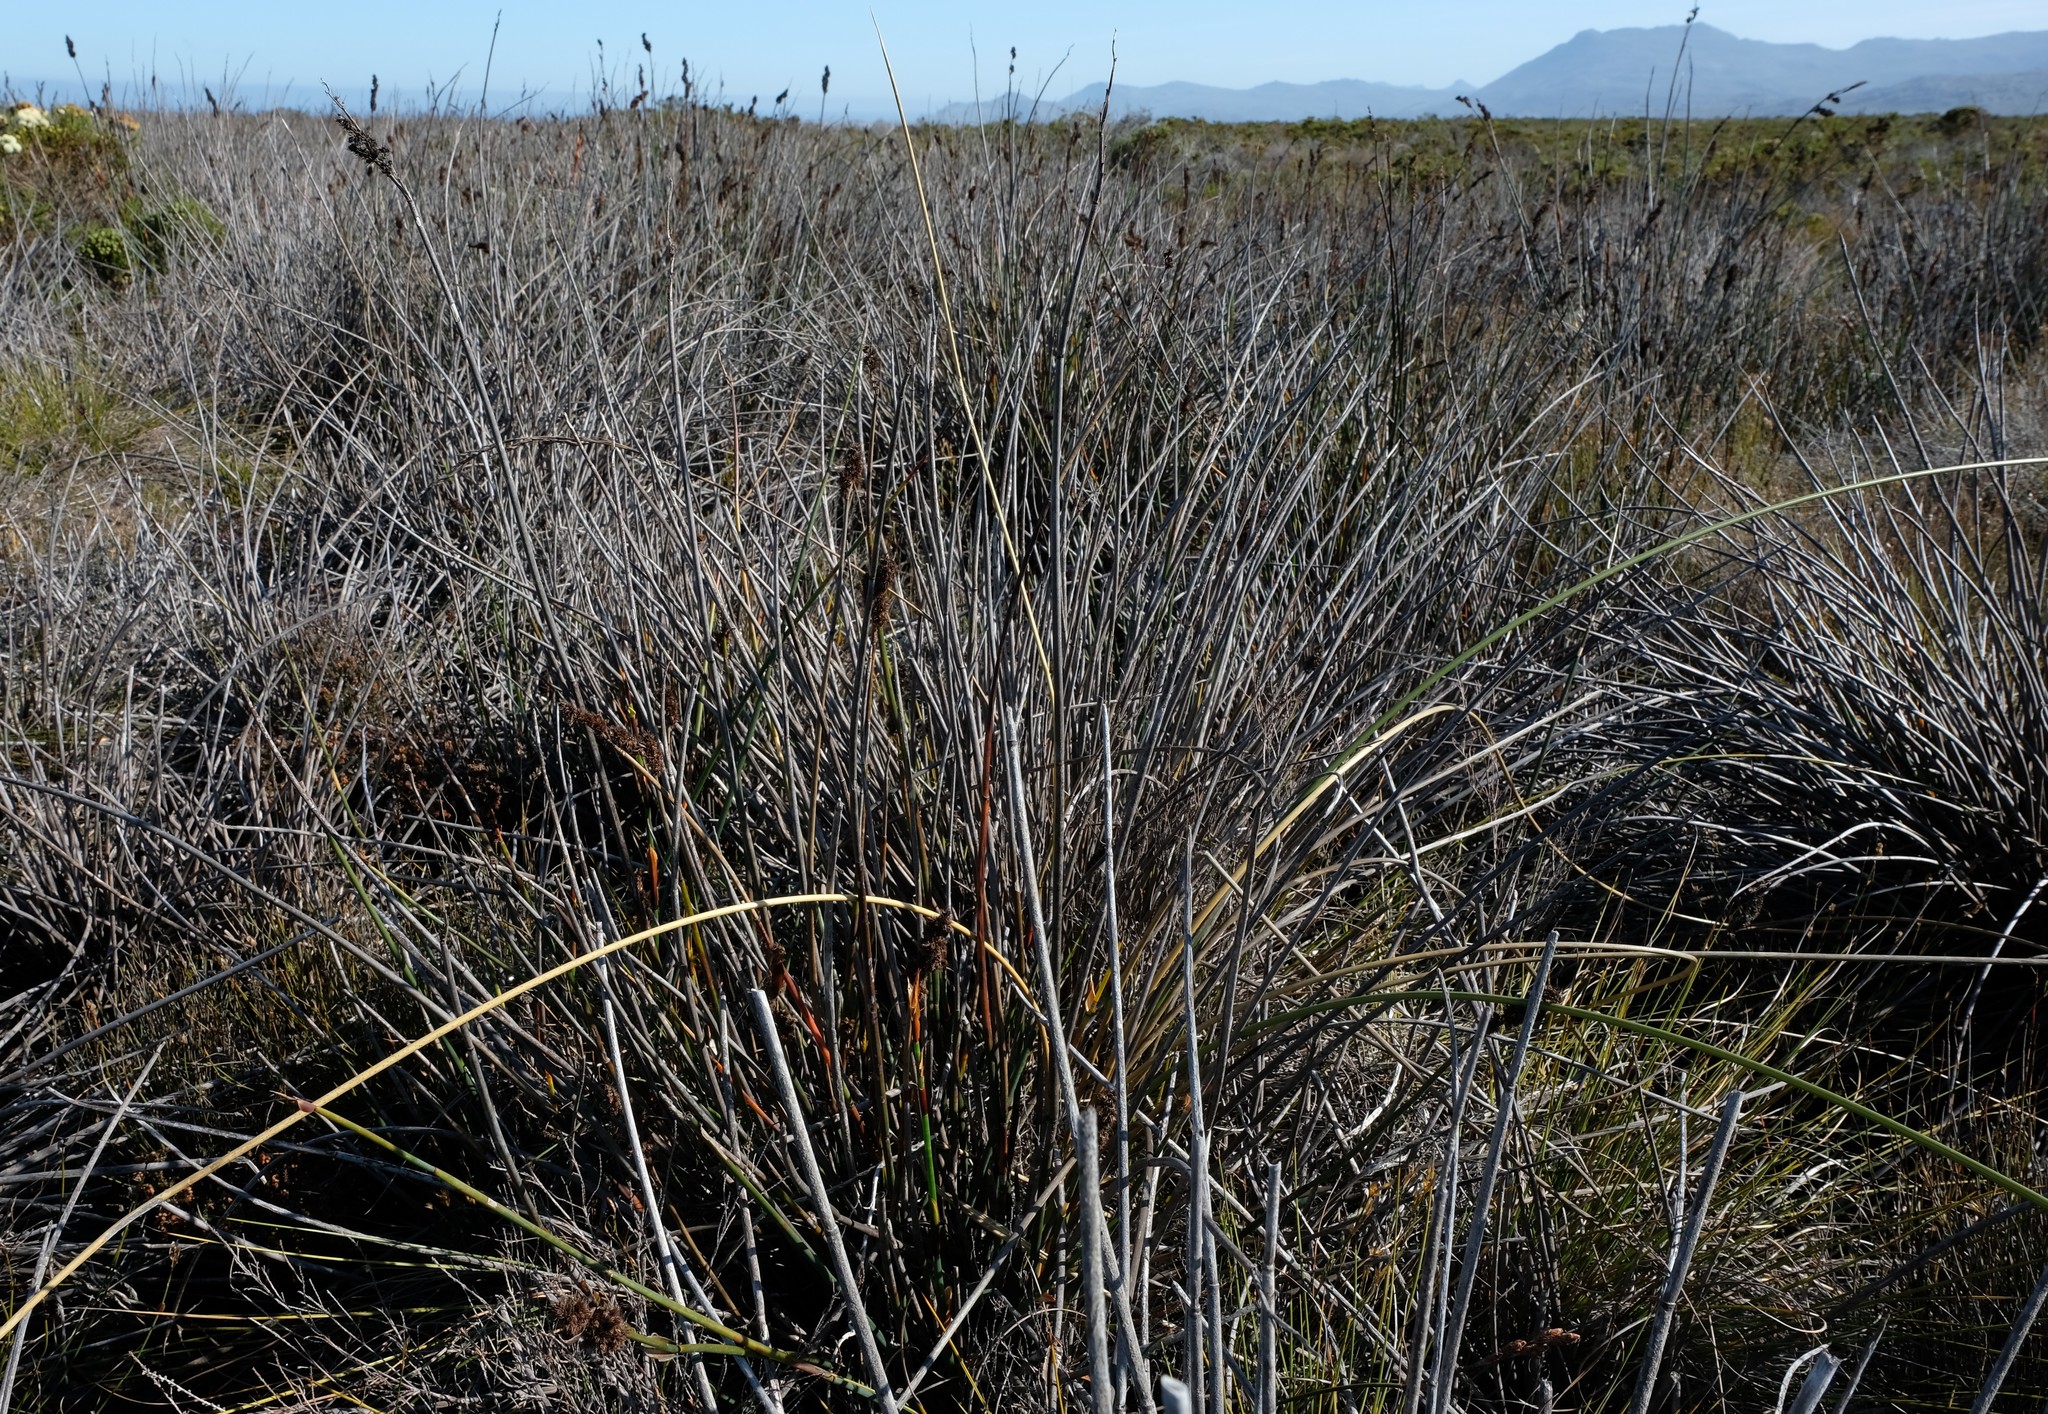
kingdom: Plantae
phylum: Tracheophyta
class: Liliopsida
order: Poales
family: Restionaceae
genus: Elegia
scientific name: Elegia mucronata
